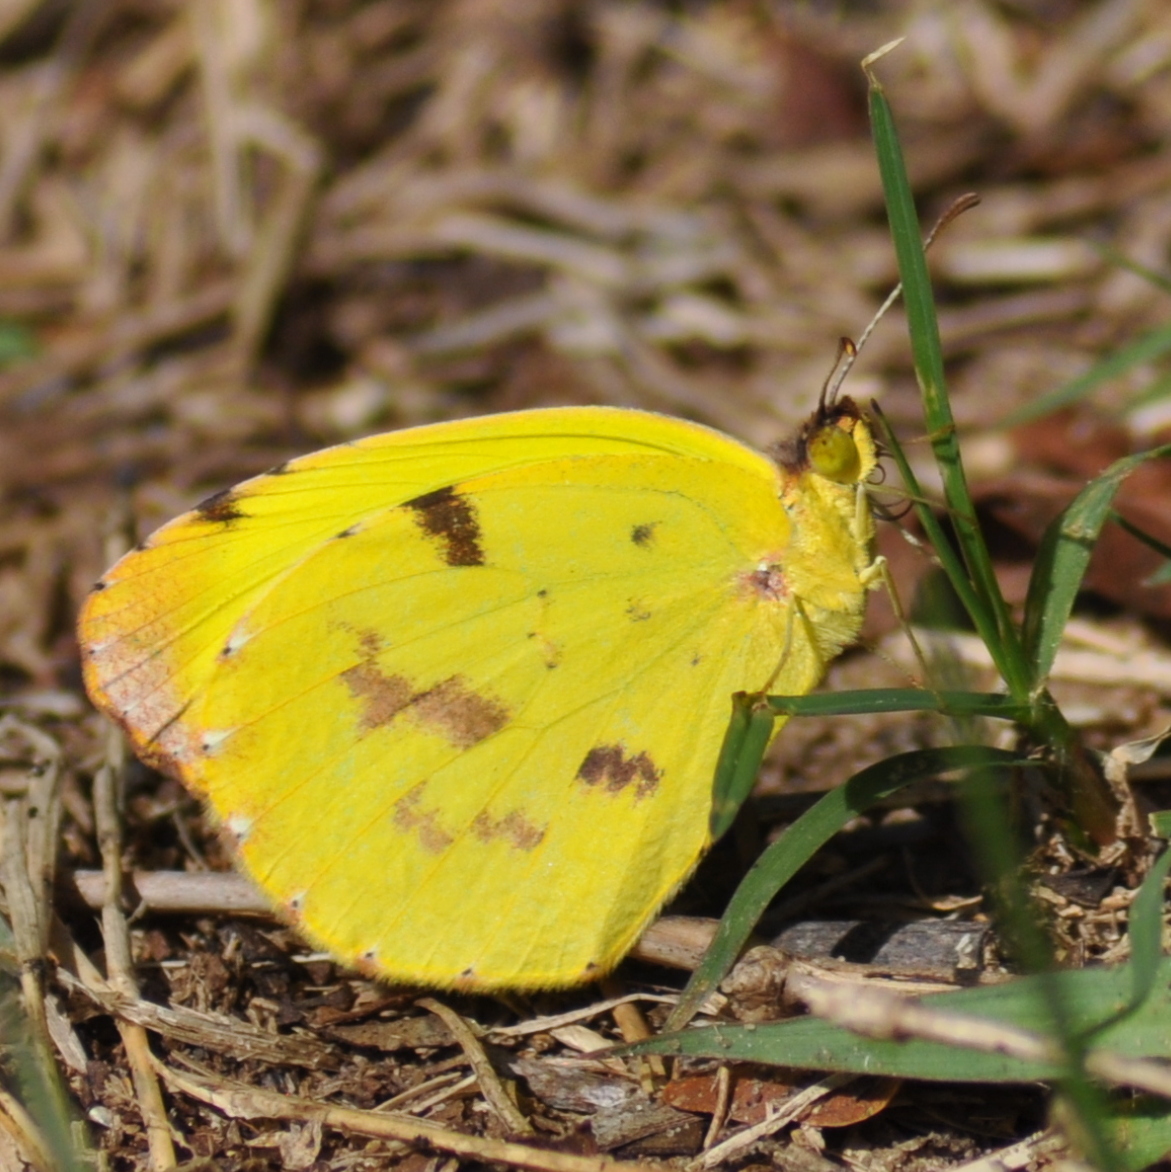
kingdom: Animalia
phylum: Arthropoda
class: Insecta
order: Lepidoptera
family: Pieridae
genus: Teriocolias
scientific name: Teriocolias
